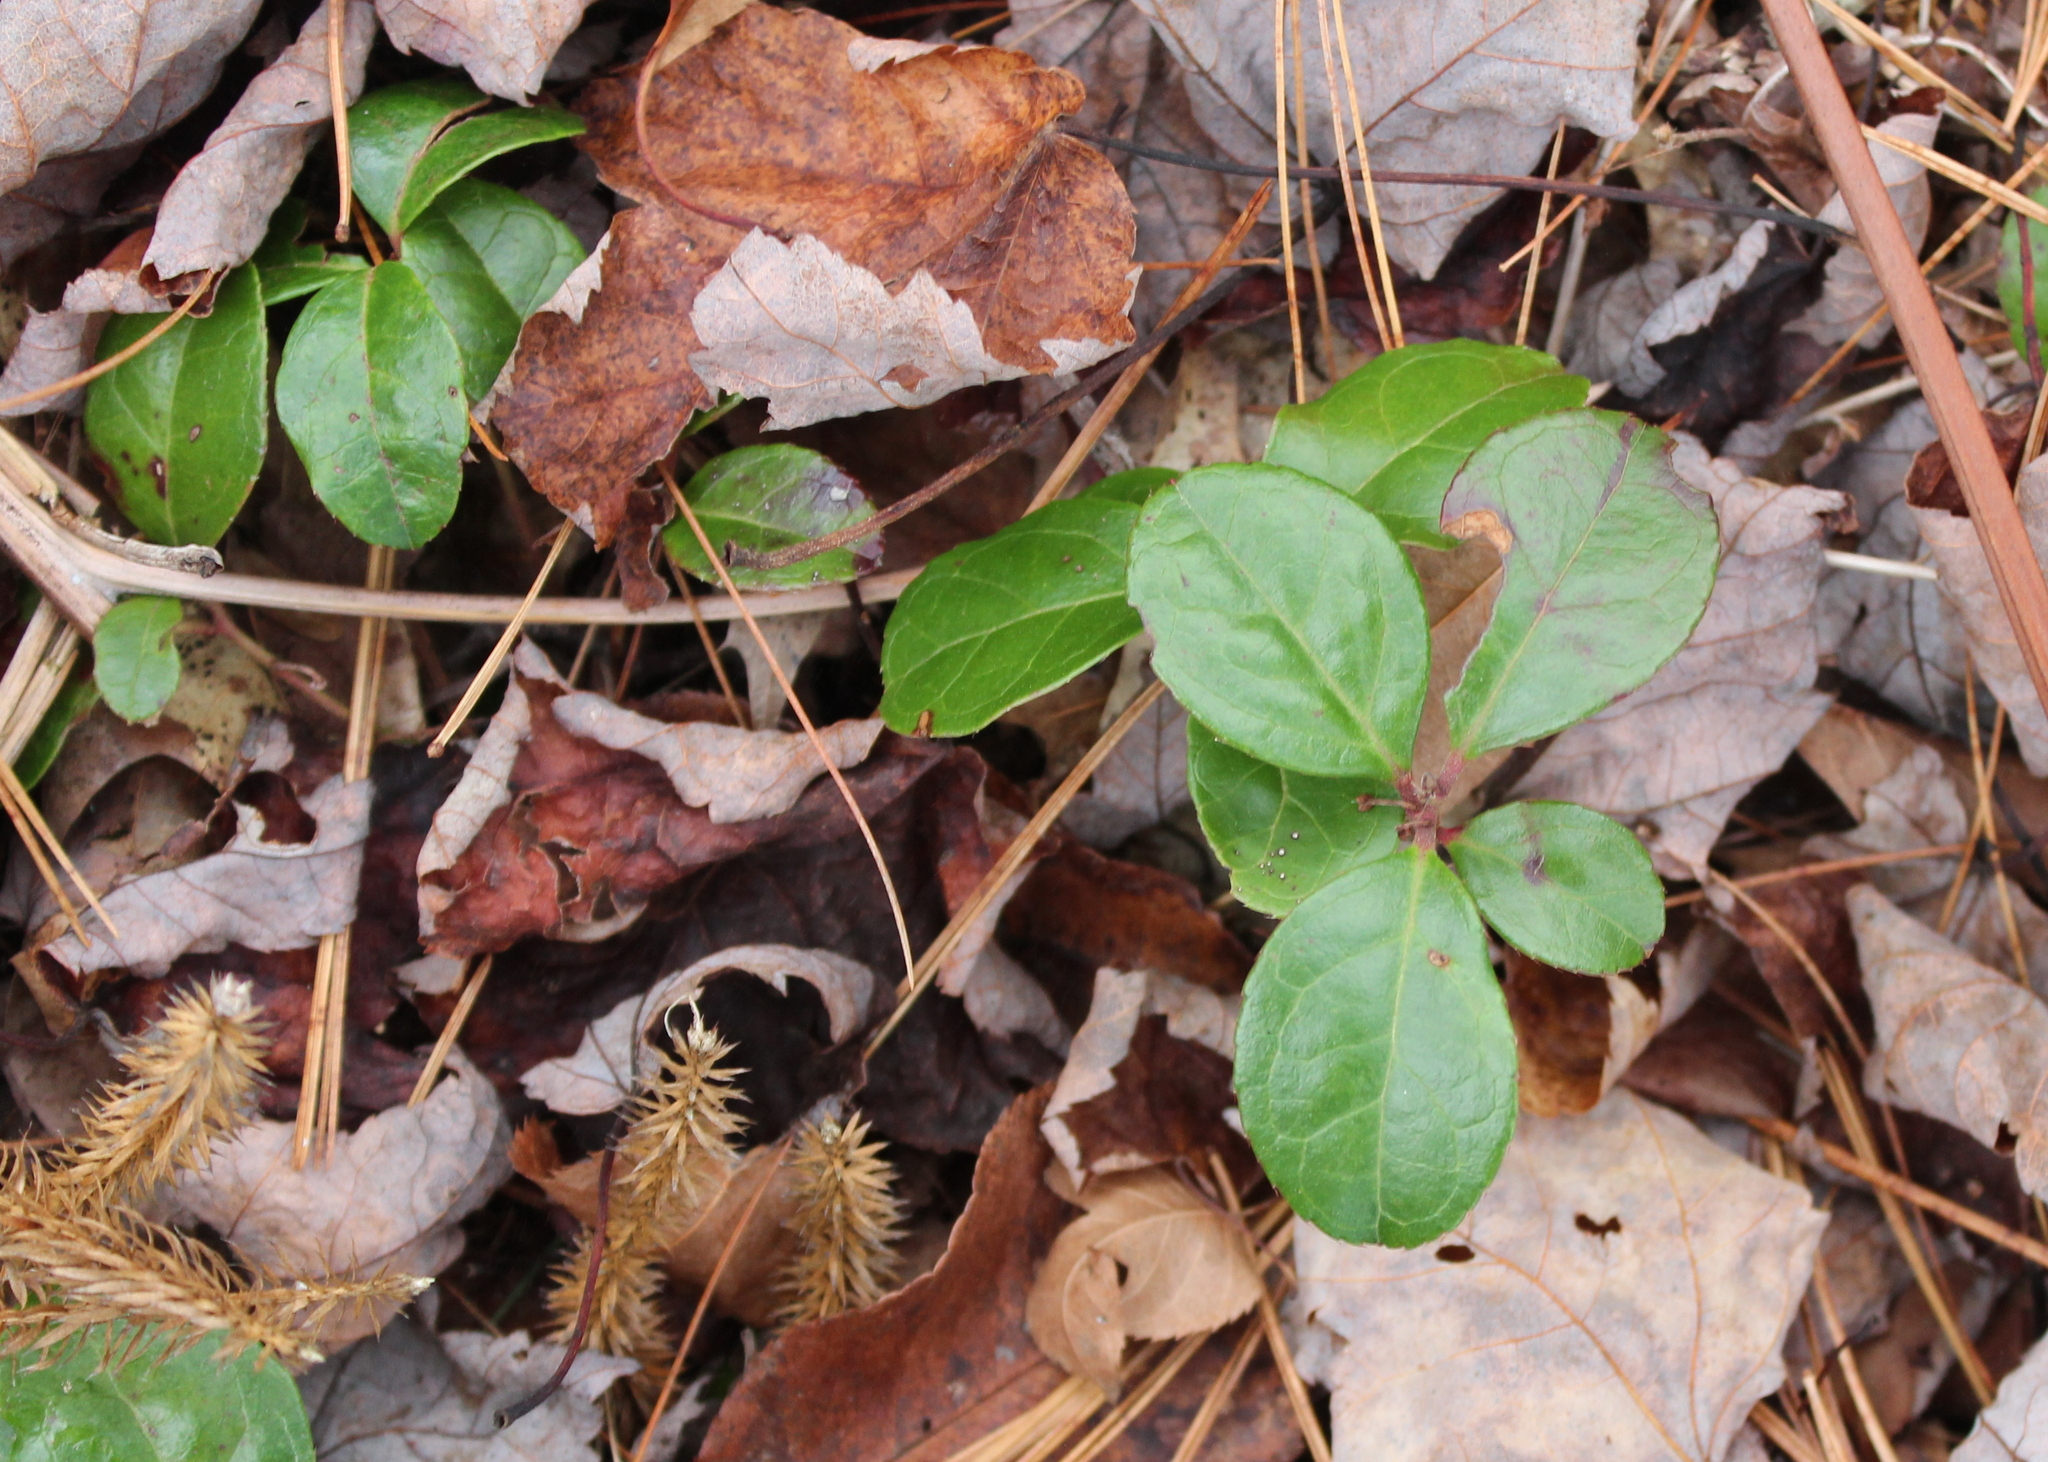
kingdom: Plantae
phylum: Tracheophyta
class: Magnoliopsida
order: Ericales
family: Ericaceae
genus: Gaultheria
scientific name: Gaultheria procumbens
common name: Checkerberry
